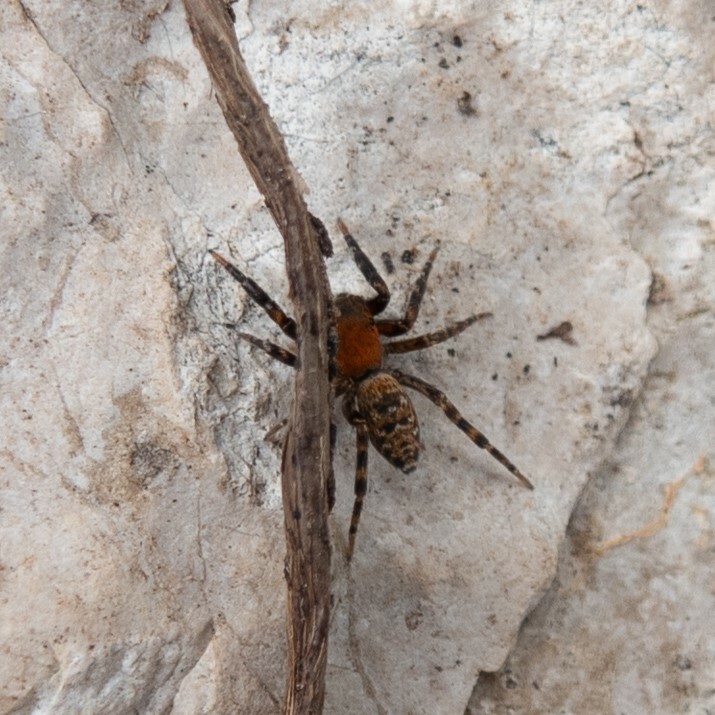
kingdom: Animalia
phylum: Arthropoda
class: Arachnida
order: Araneae
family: Salticidae
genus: Cyrba
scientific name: Cyrba algerina
